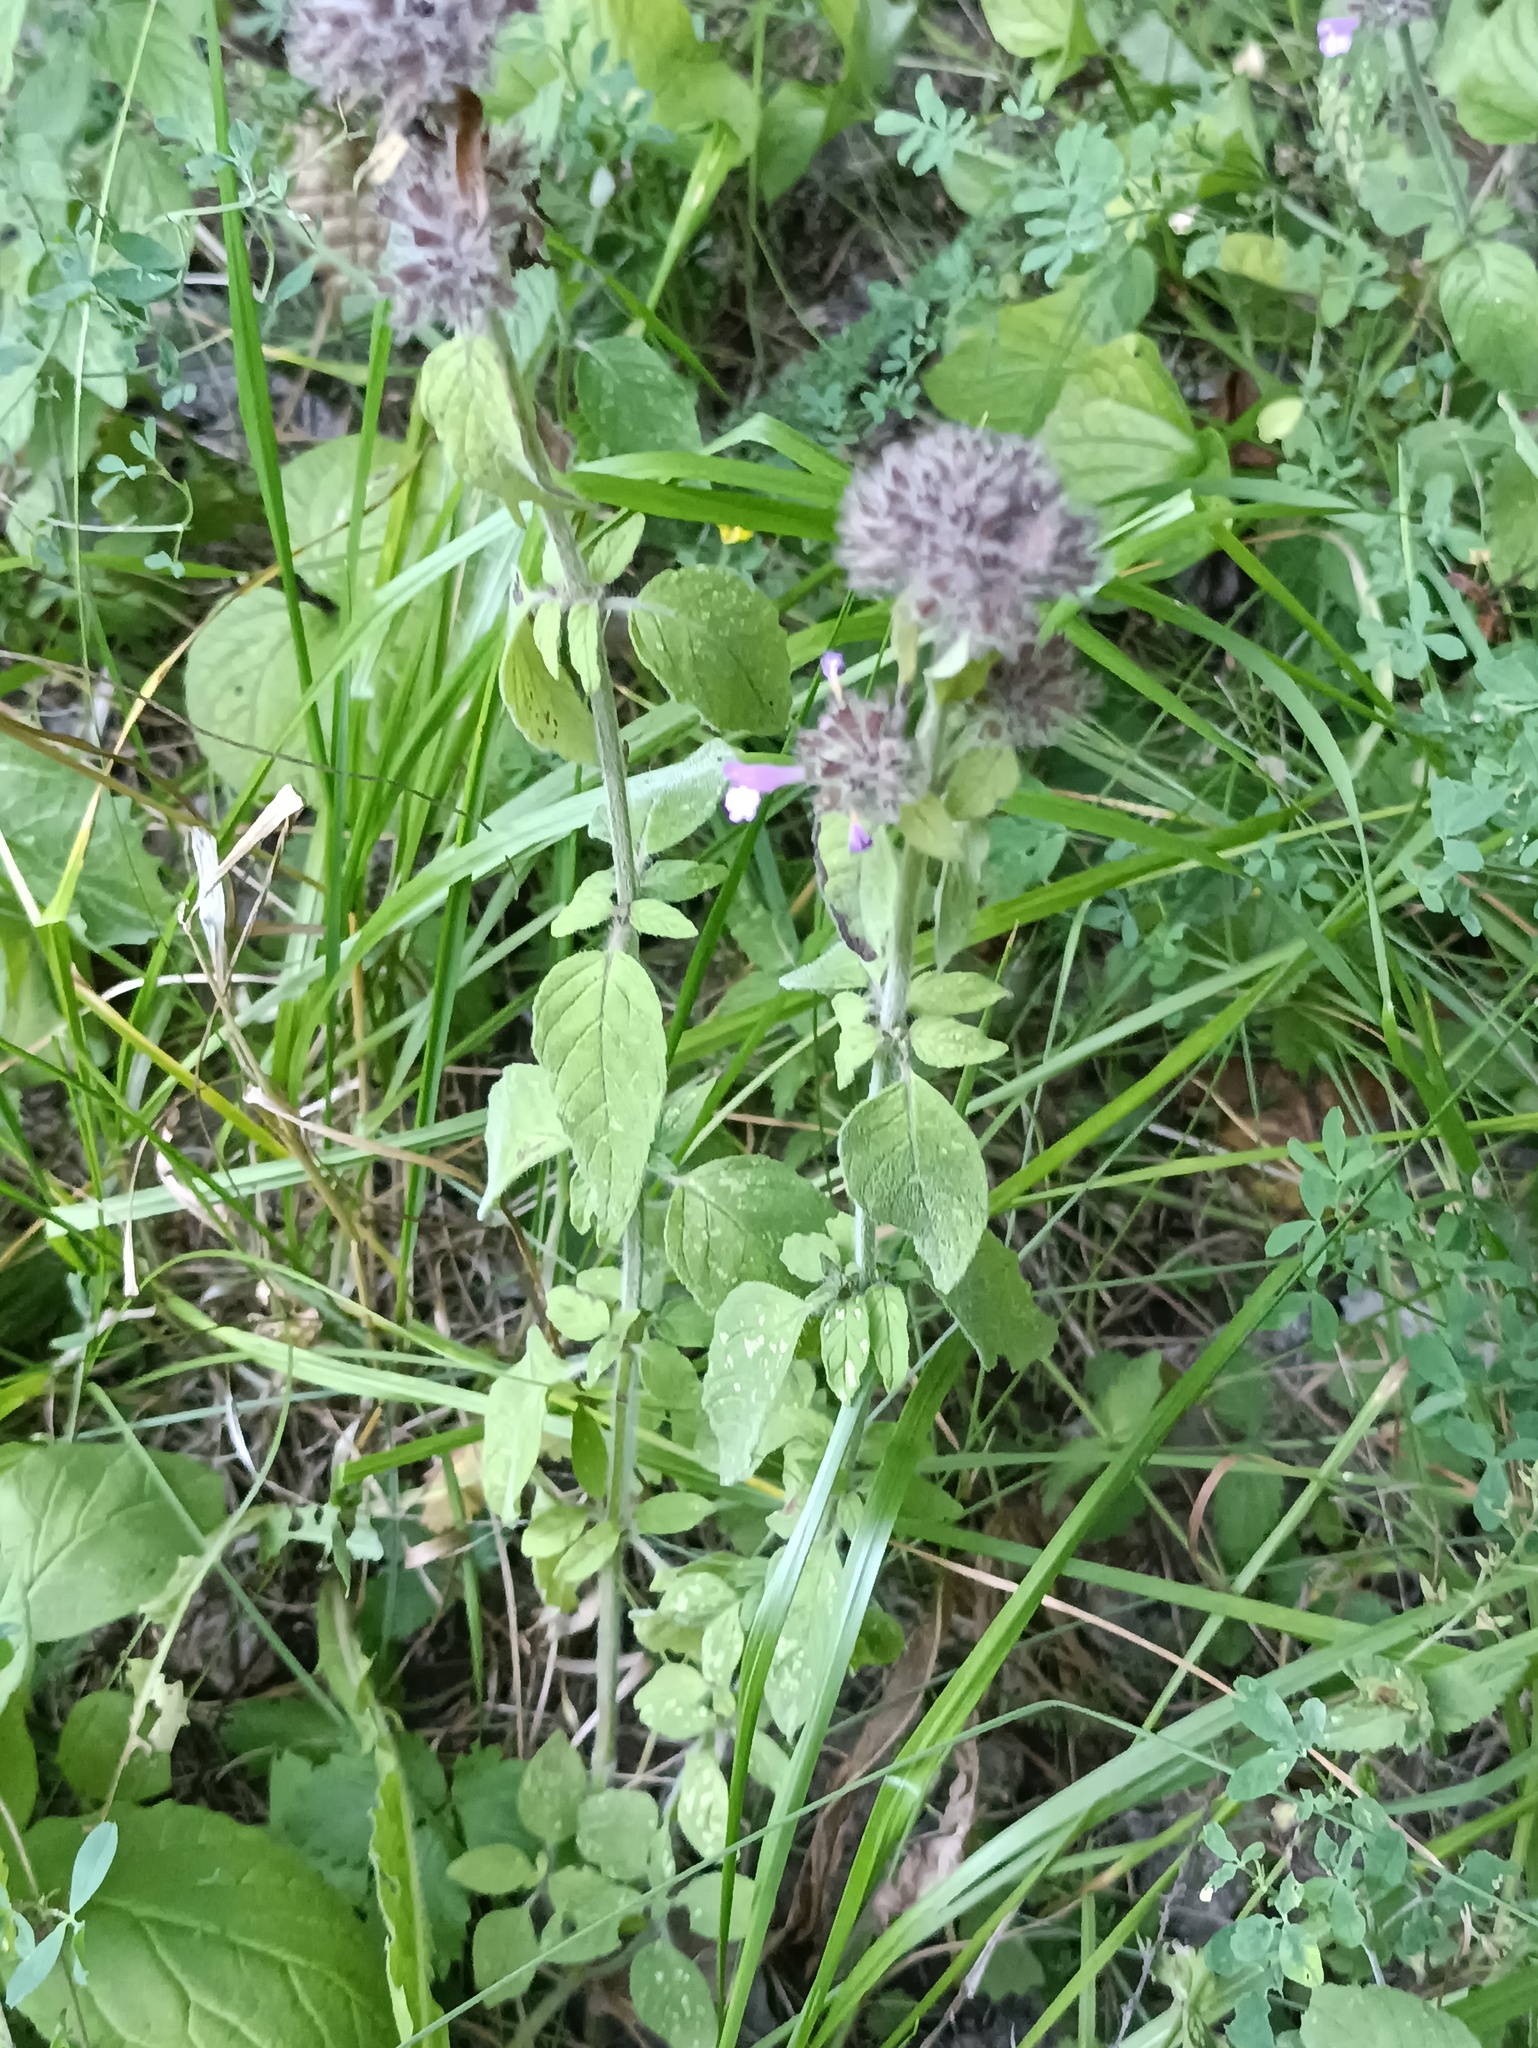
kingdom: Plantae
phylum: Tracheophyta
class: Magnoliopsida
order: Lamiales
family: Lamiaceae
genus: Clinopodium
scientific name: Clinopodium vulgare
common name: Wild basil
